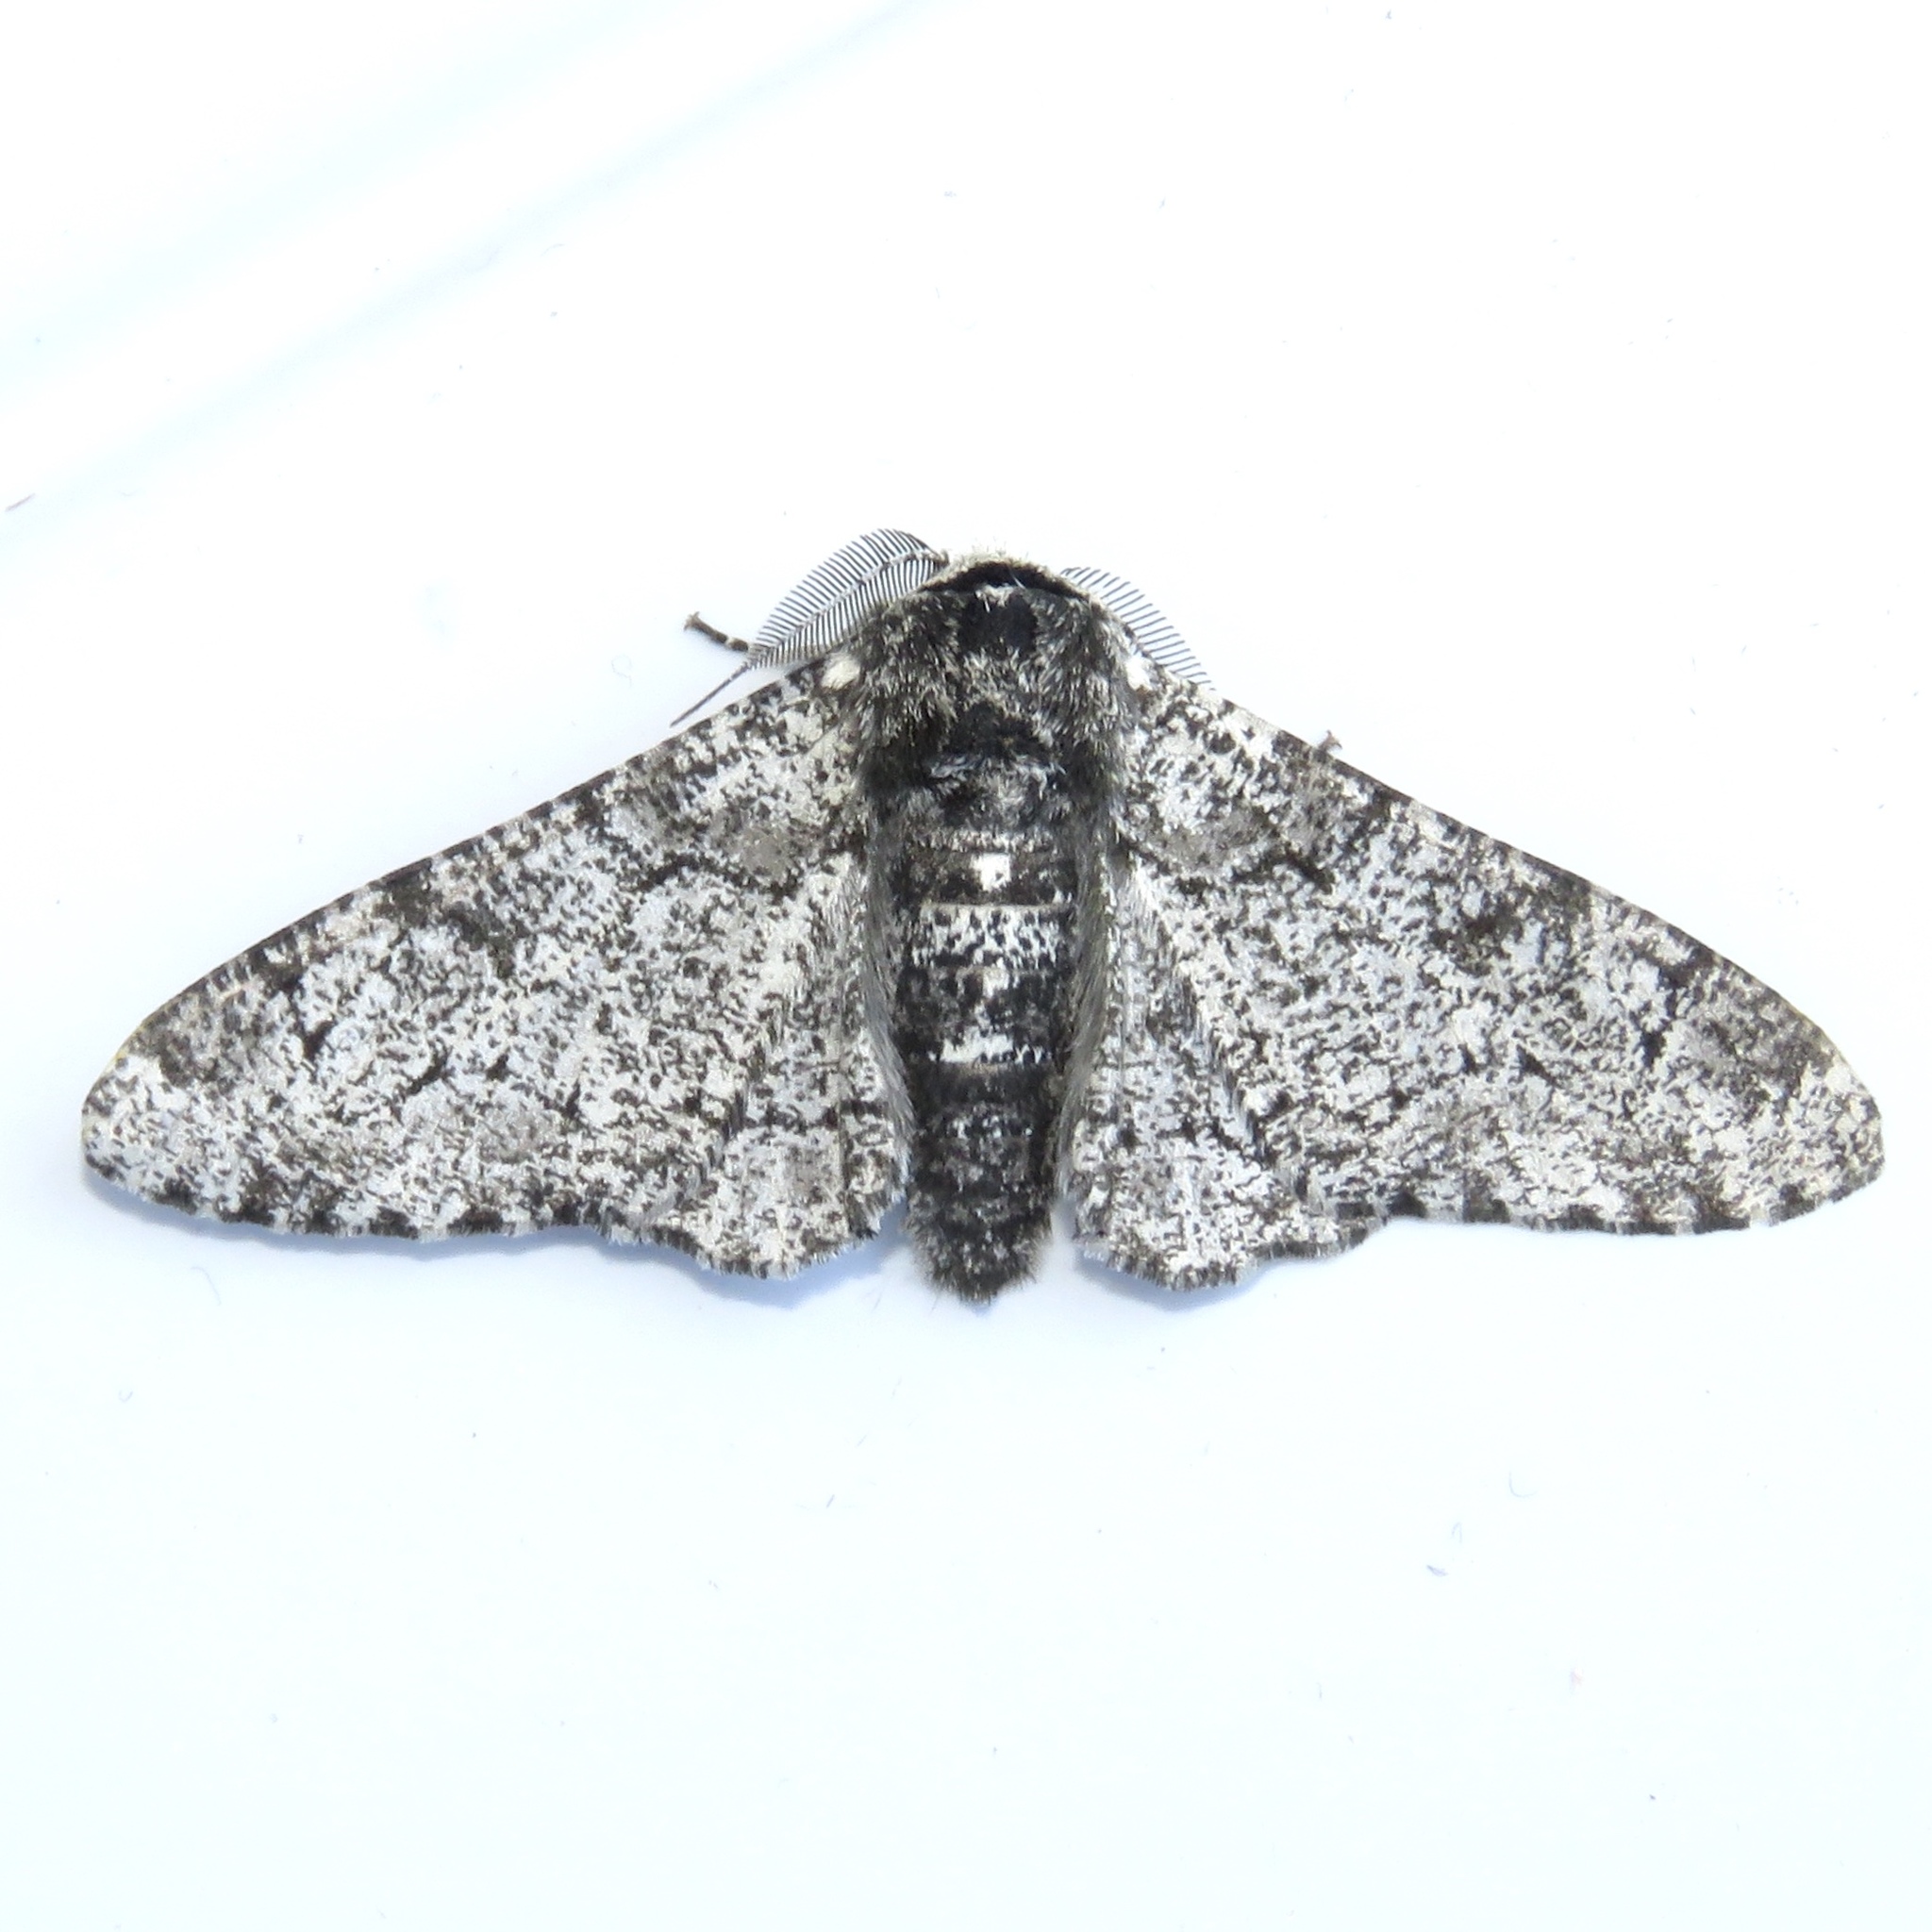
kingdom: Animalia
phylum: Arthropoda
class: Insecta
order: Lepidoptera
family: Geometridae
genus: Biston
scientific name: Biston betularia
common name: Peppered moth
